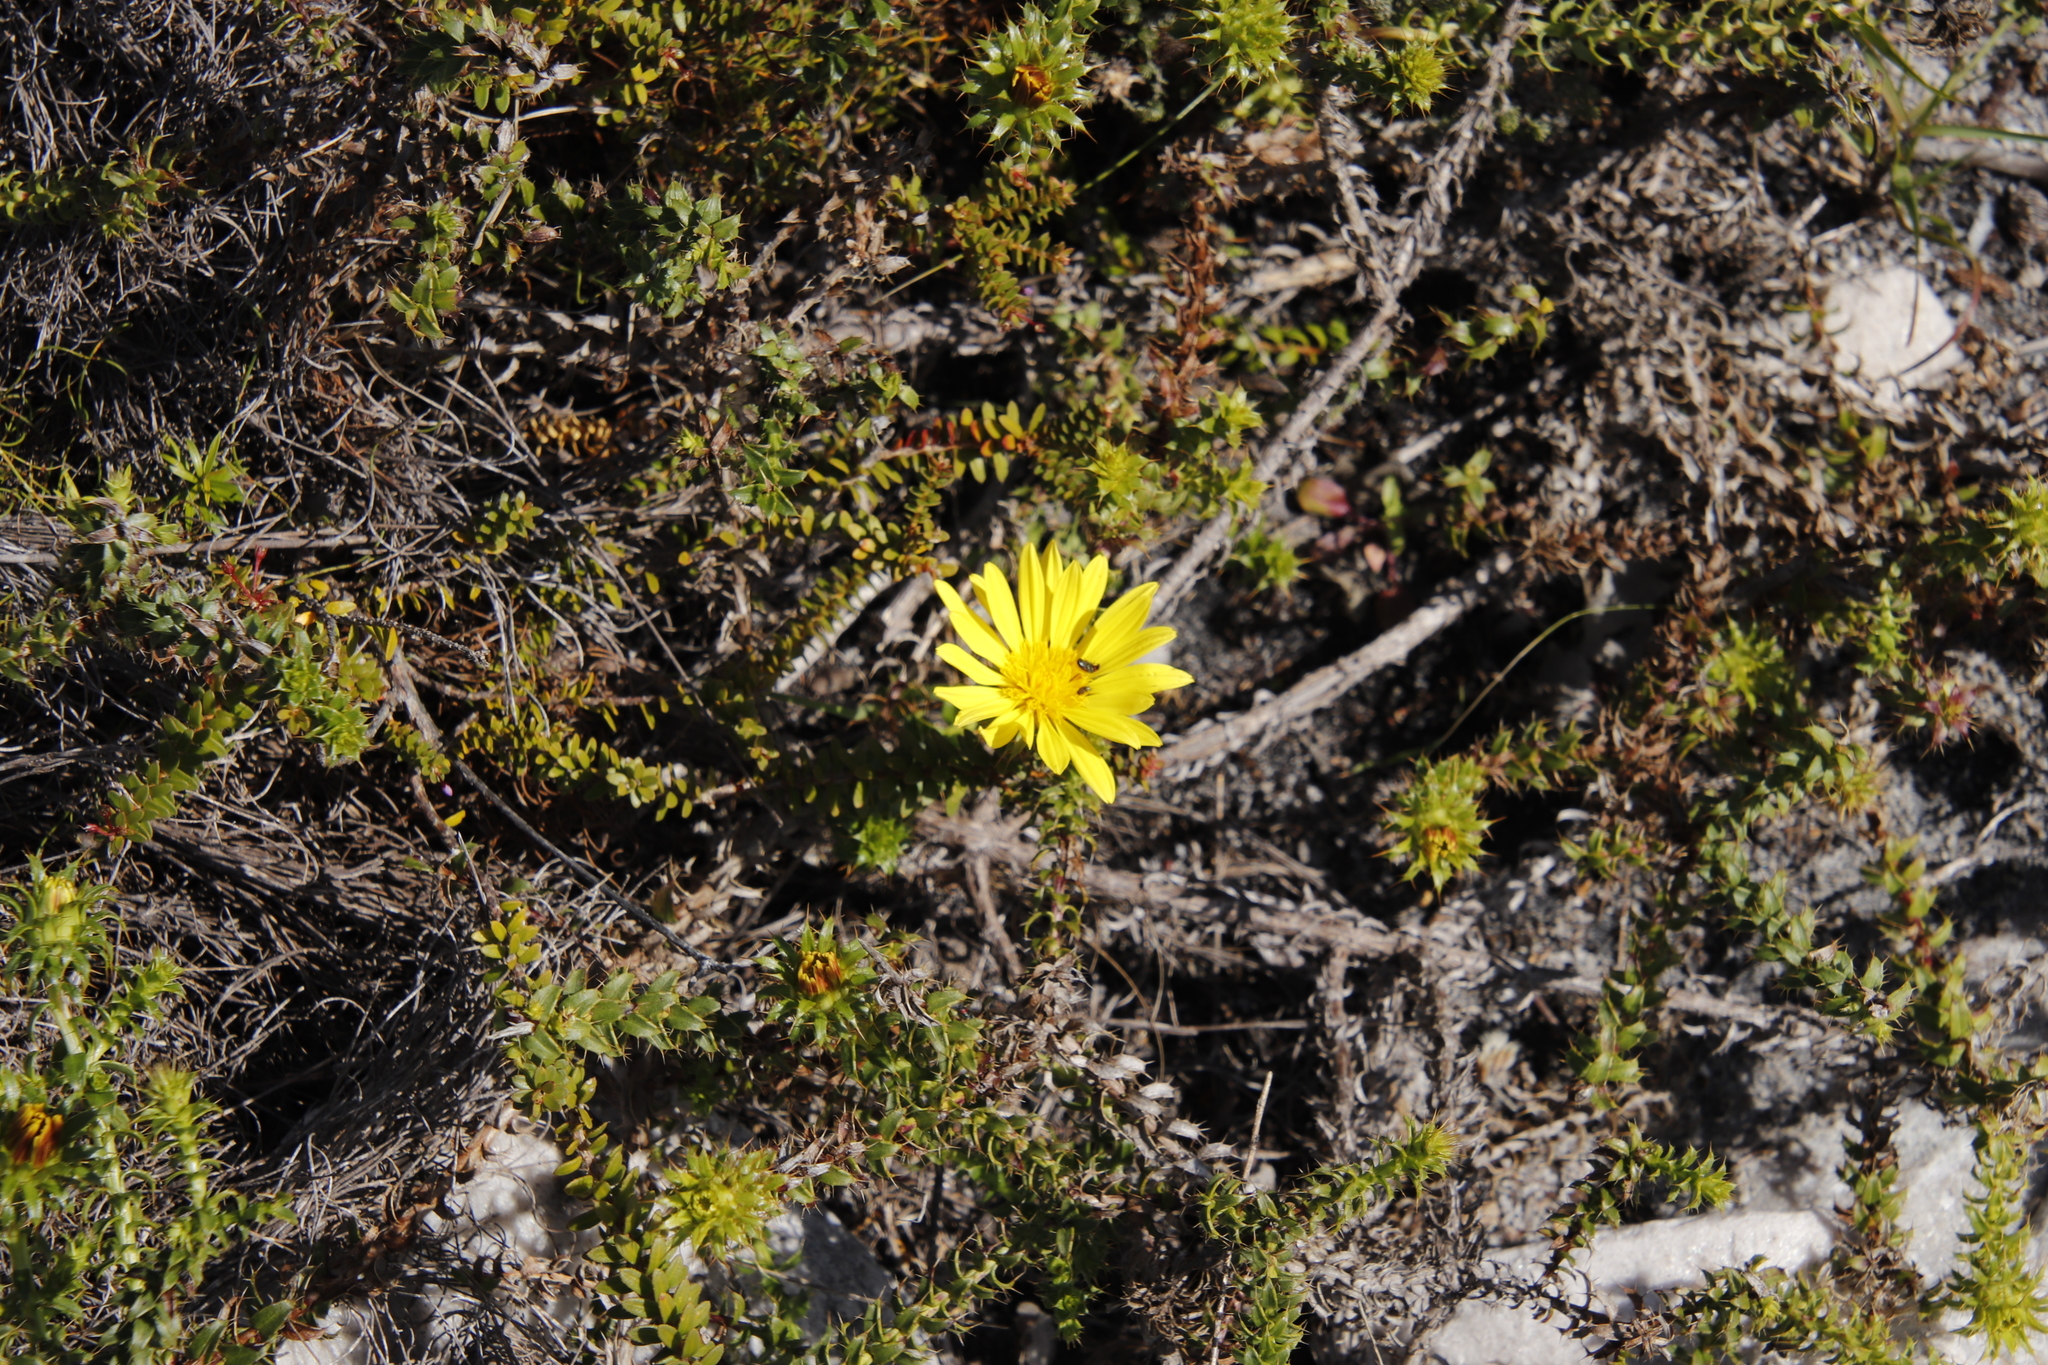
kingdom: Plantae
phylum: Tracheophyta
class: Magnoliopsida
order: Asterales
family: Asteraceae
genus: Cullumia
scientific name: Cullumia setosa
